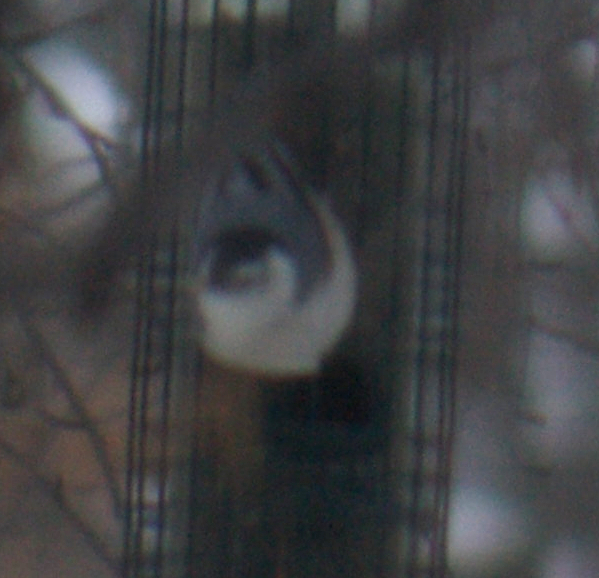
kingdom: Animalia
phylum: Chordata
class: Aves
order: Passeriformes
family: Sittidae
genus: Sitta
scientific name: Sitta carolinensis
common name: White-breasted nuthatch
